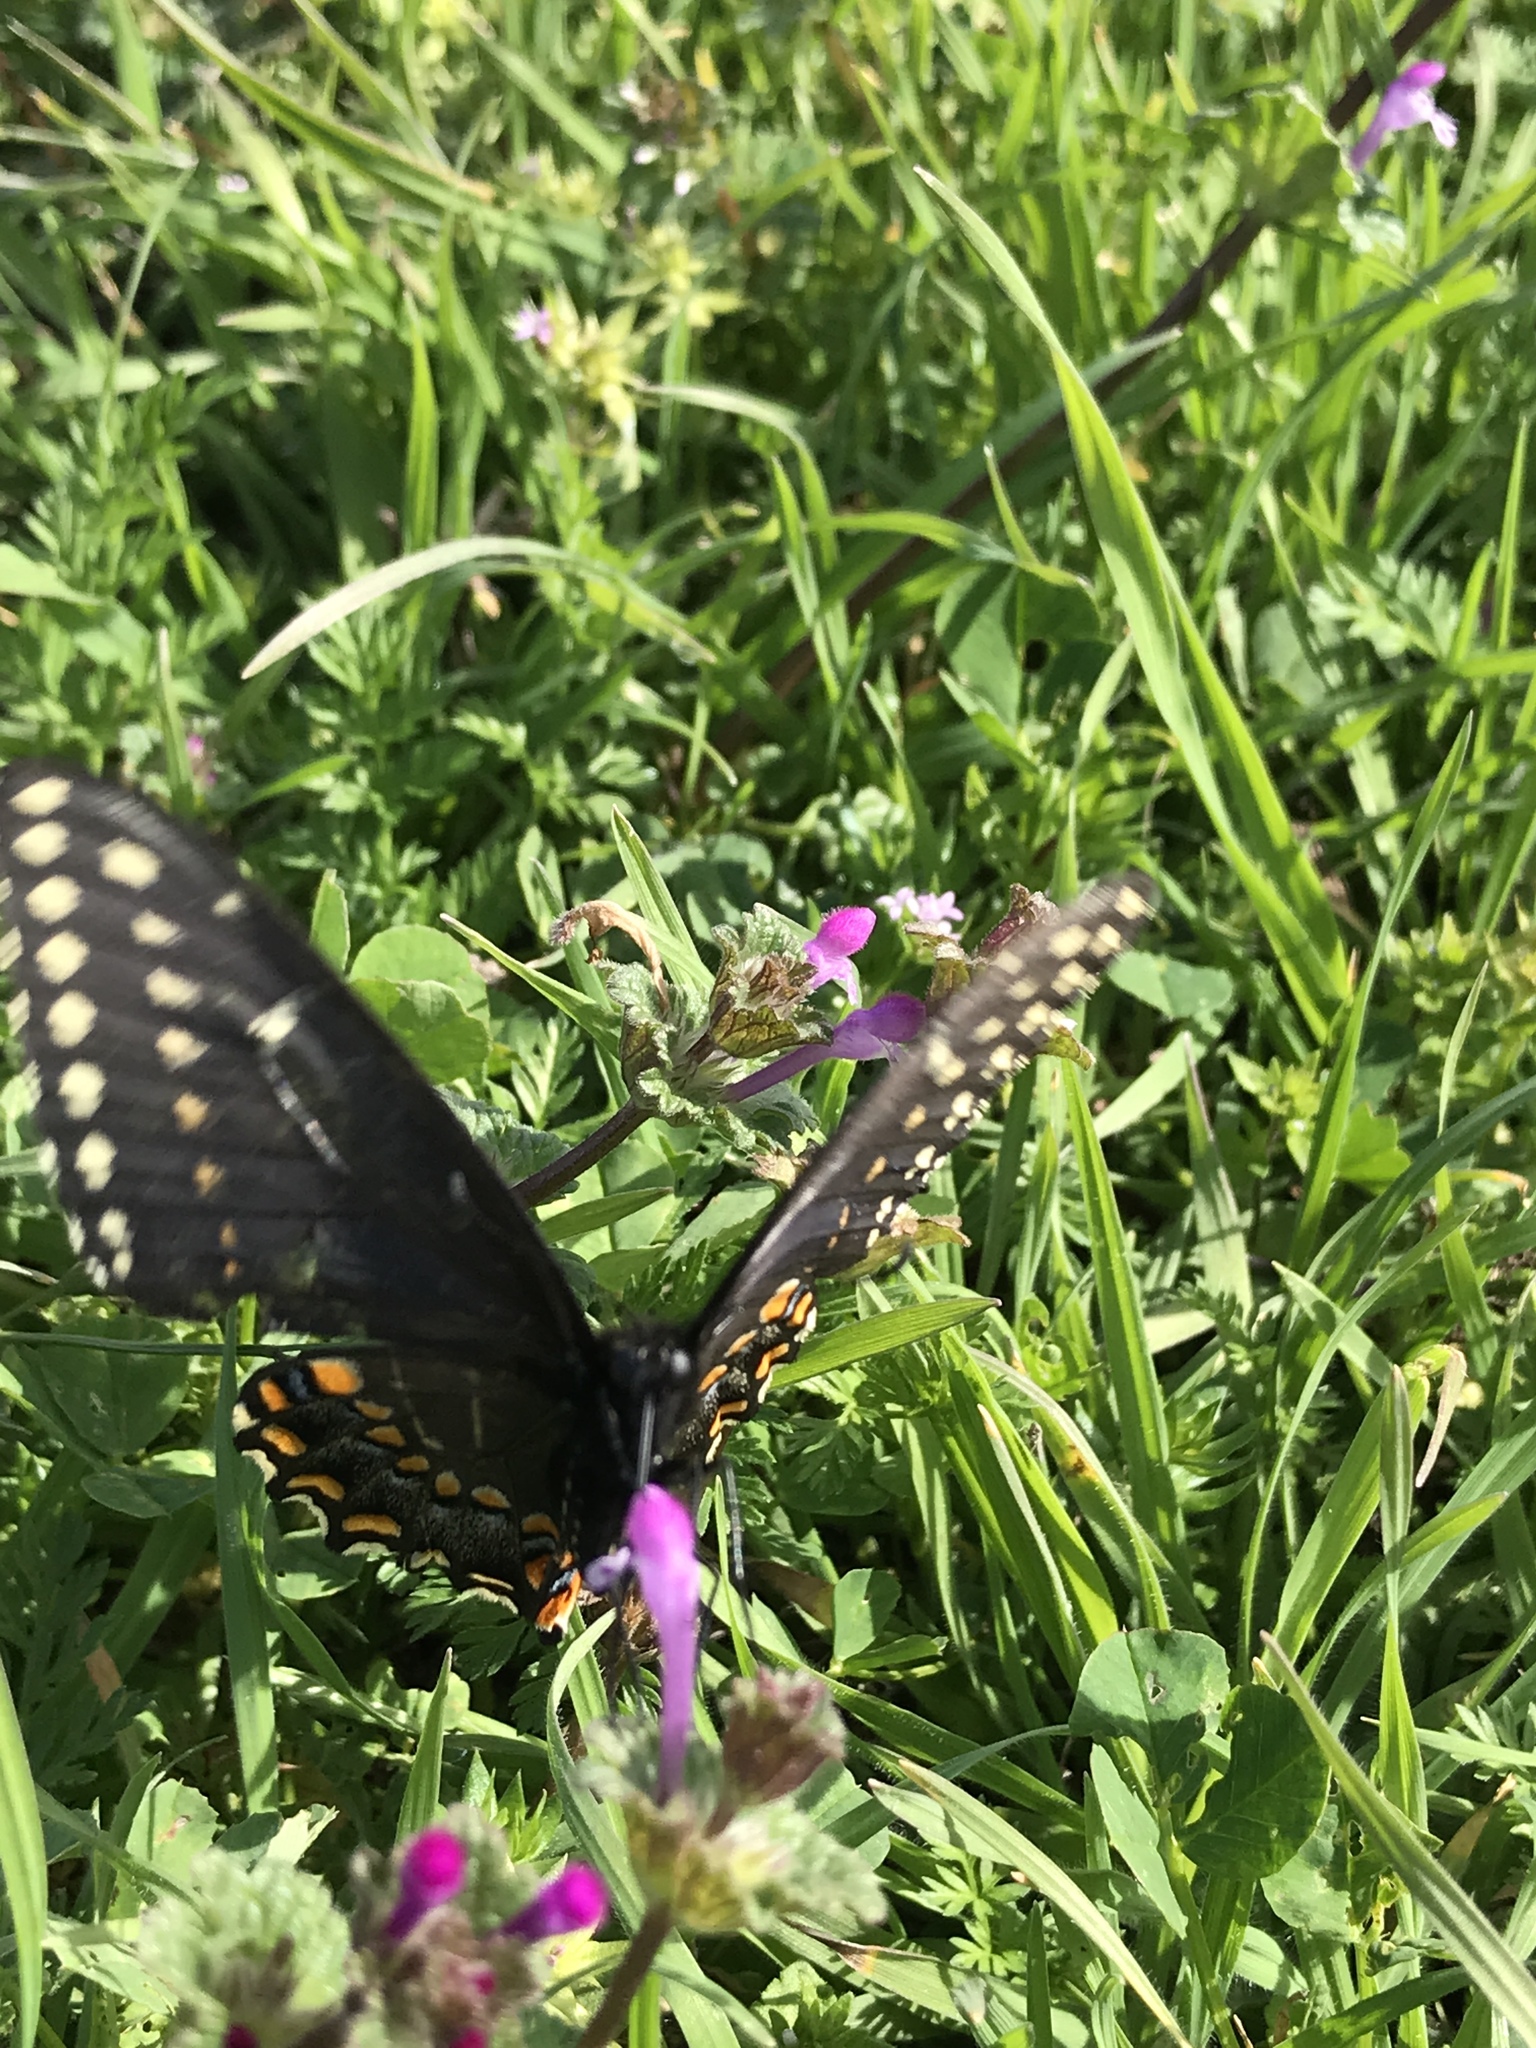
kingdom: Animalia
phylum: Arthropoda
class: Insecta
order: Lepidoptera
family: Papilionidae
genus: Papilio
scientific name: Papilio polyxenes
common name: Black swallowtail
